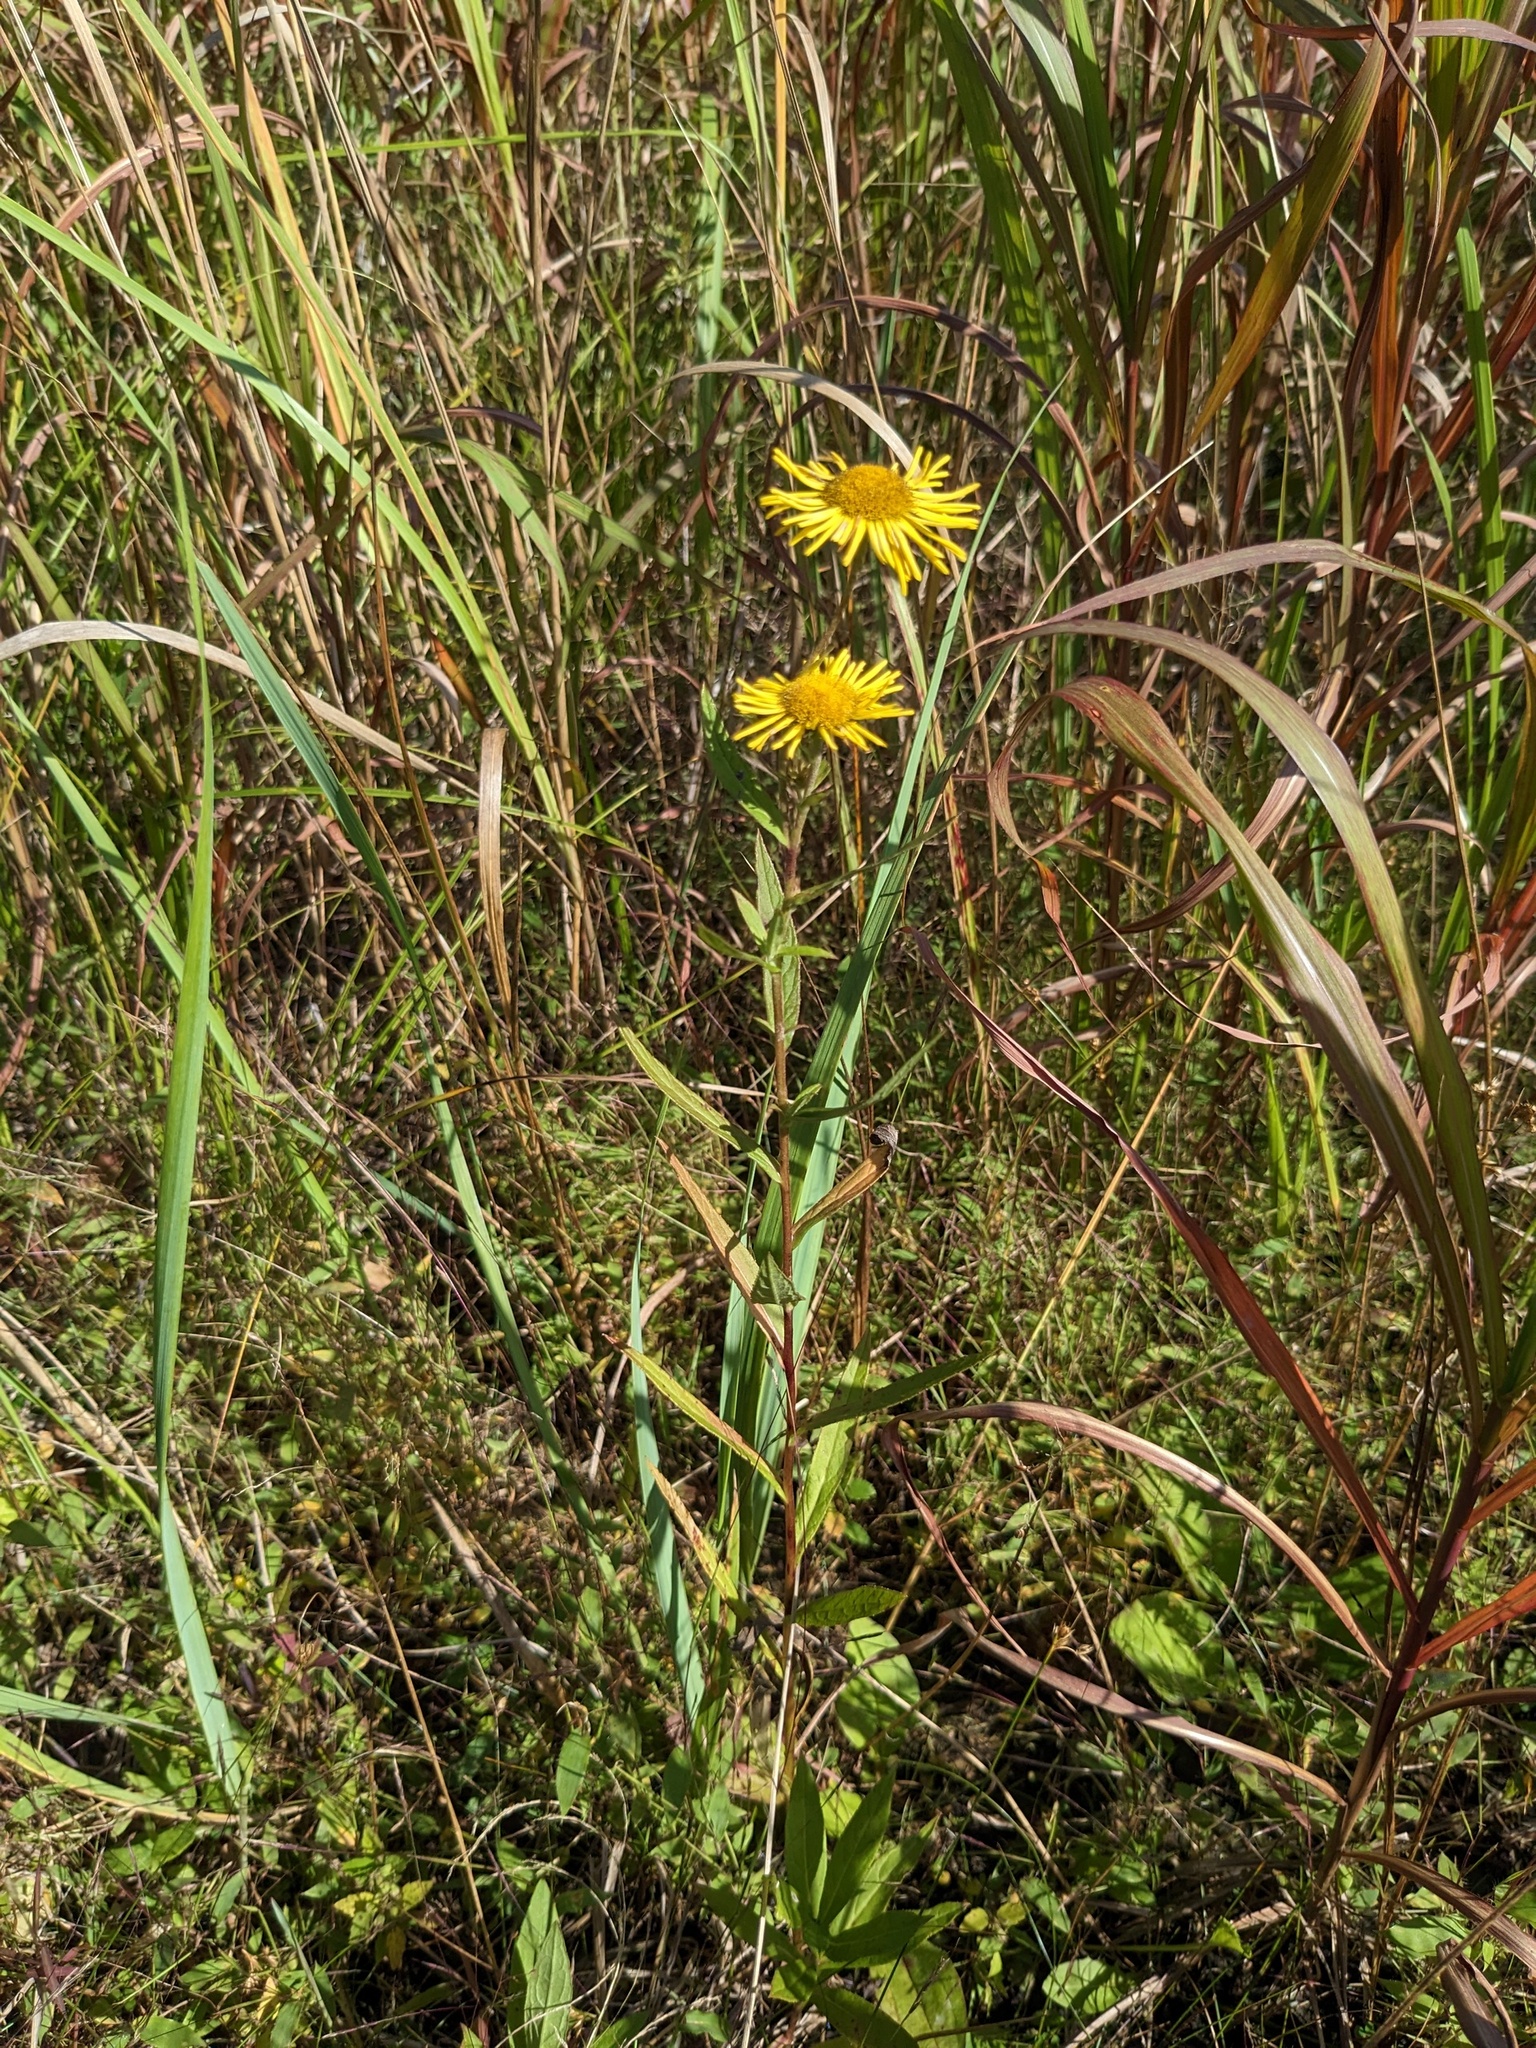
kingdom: Plantae
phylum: Tracheophyta
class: Magnoliopsida
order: Asterales
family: Asteraceae
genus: Inula
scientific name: Inula japonica
